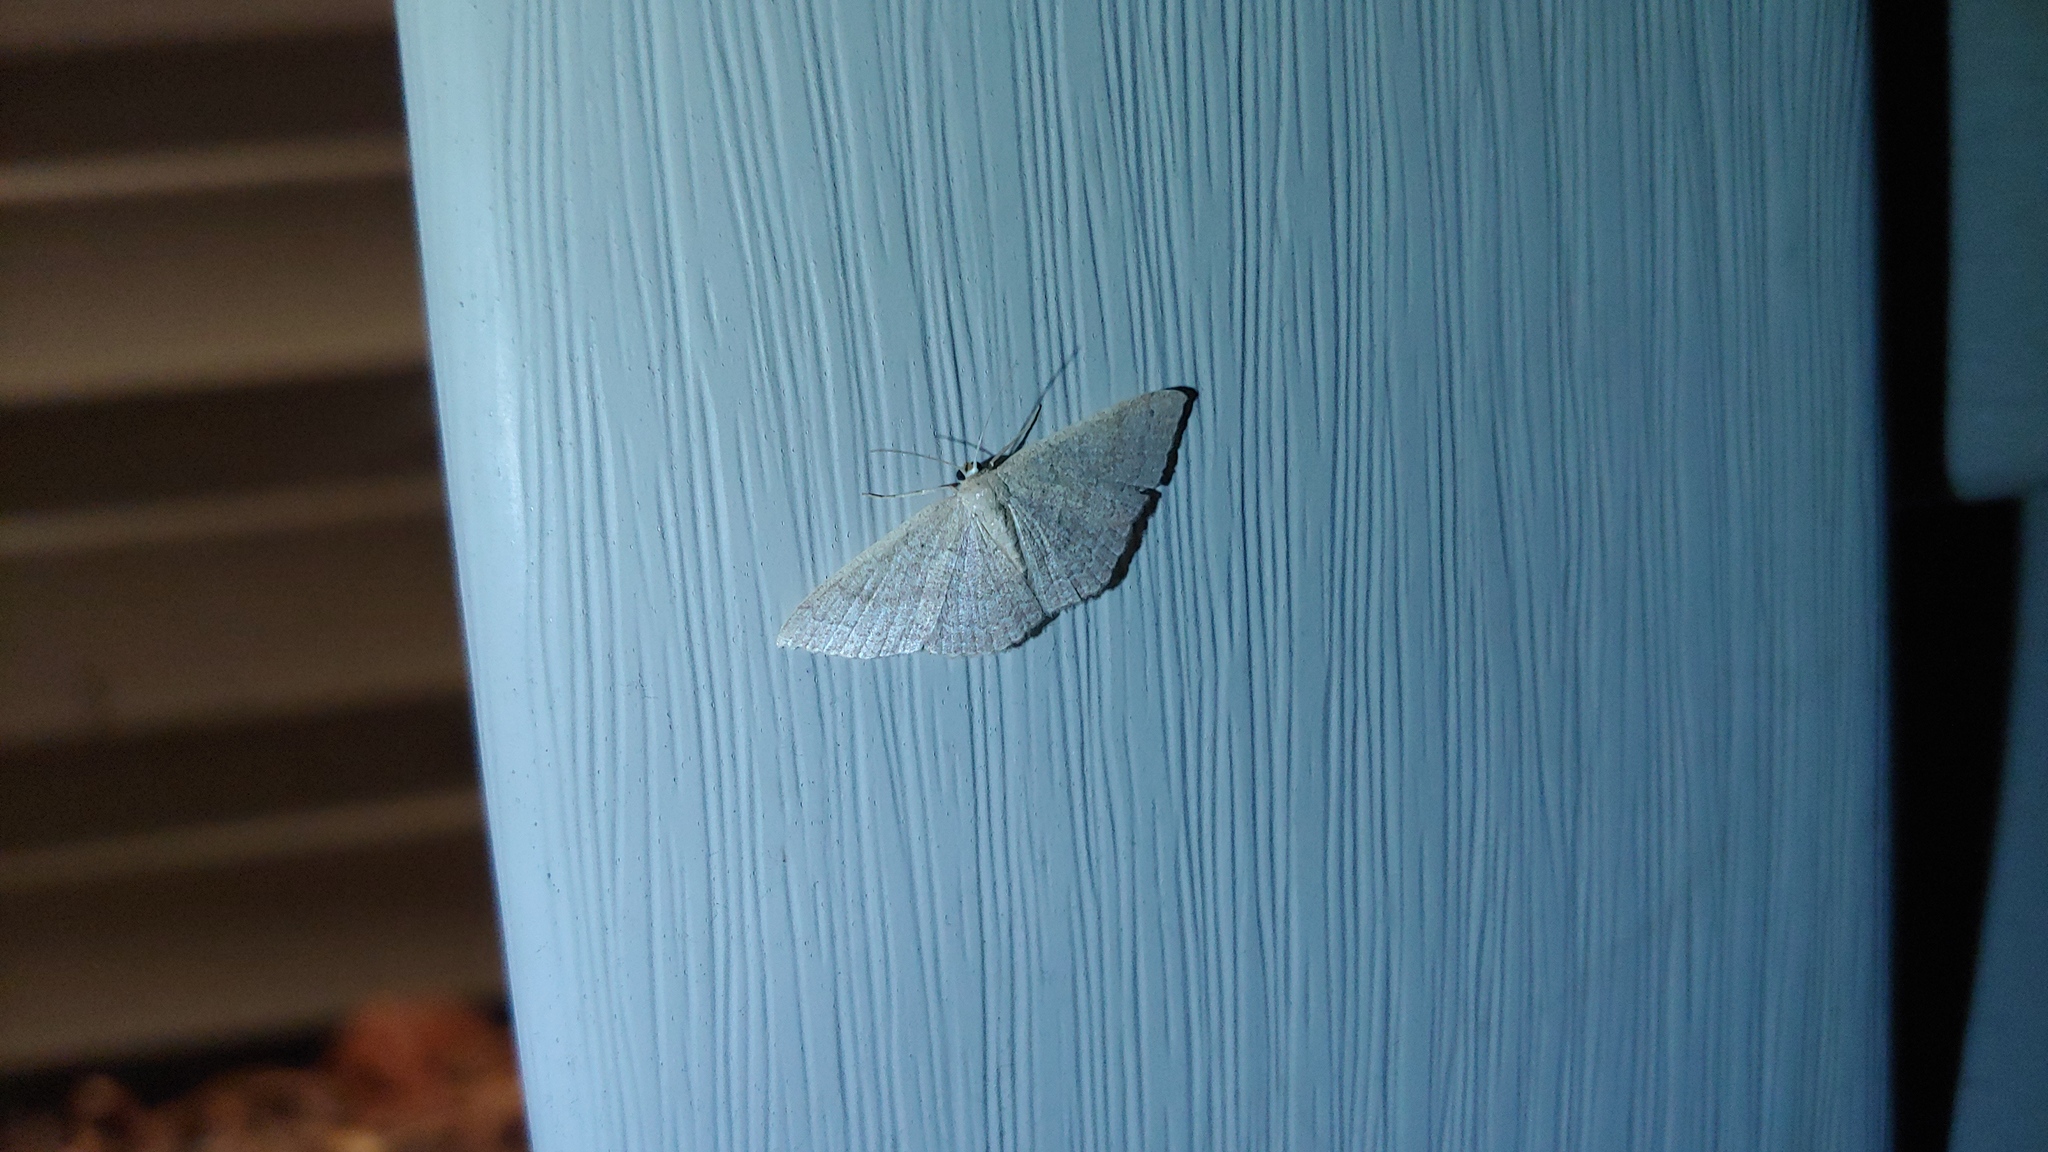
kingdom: Animalia
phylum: Arthropoda
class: Insecta
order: Lepidoptera
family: Geometridae
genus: Pleuroprucha
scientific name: Pleuroprucha insulsaria
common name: Common tan wave
